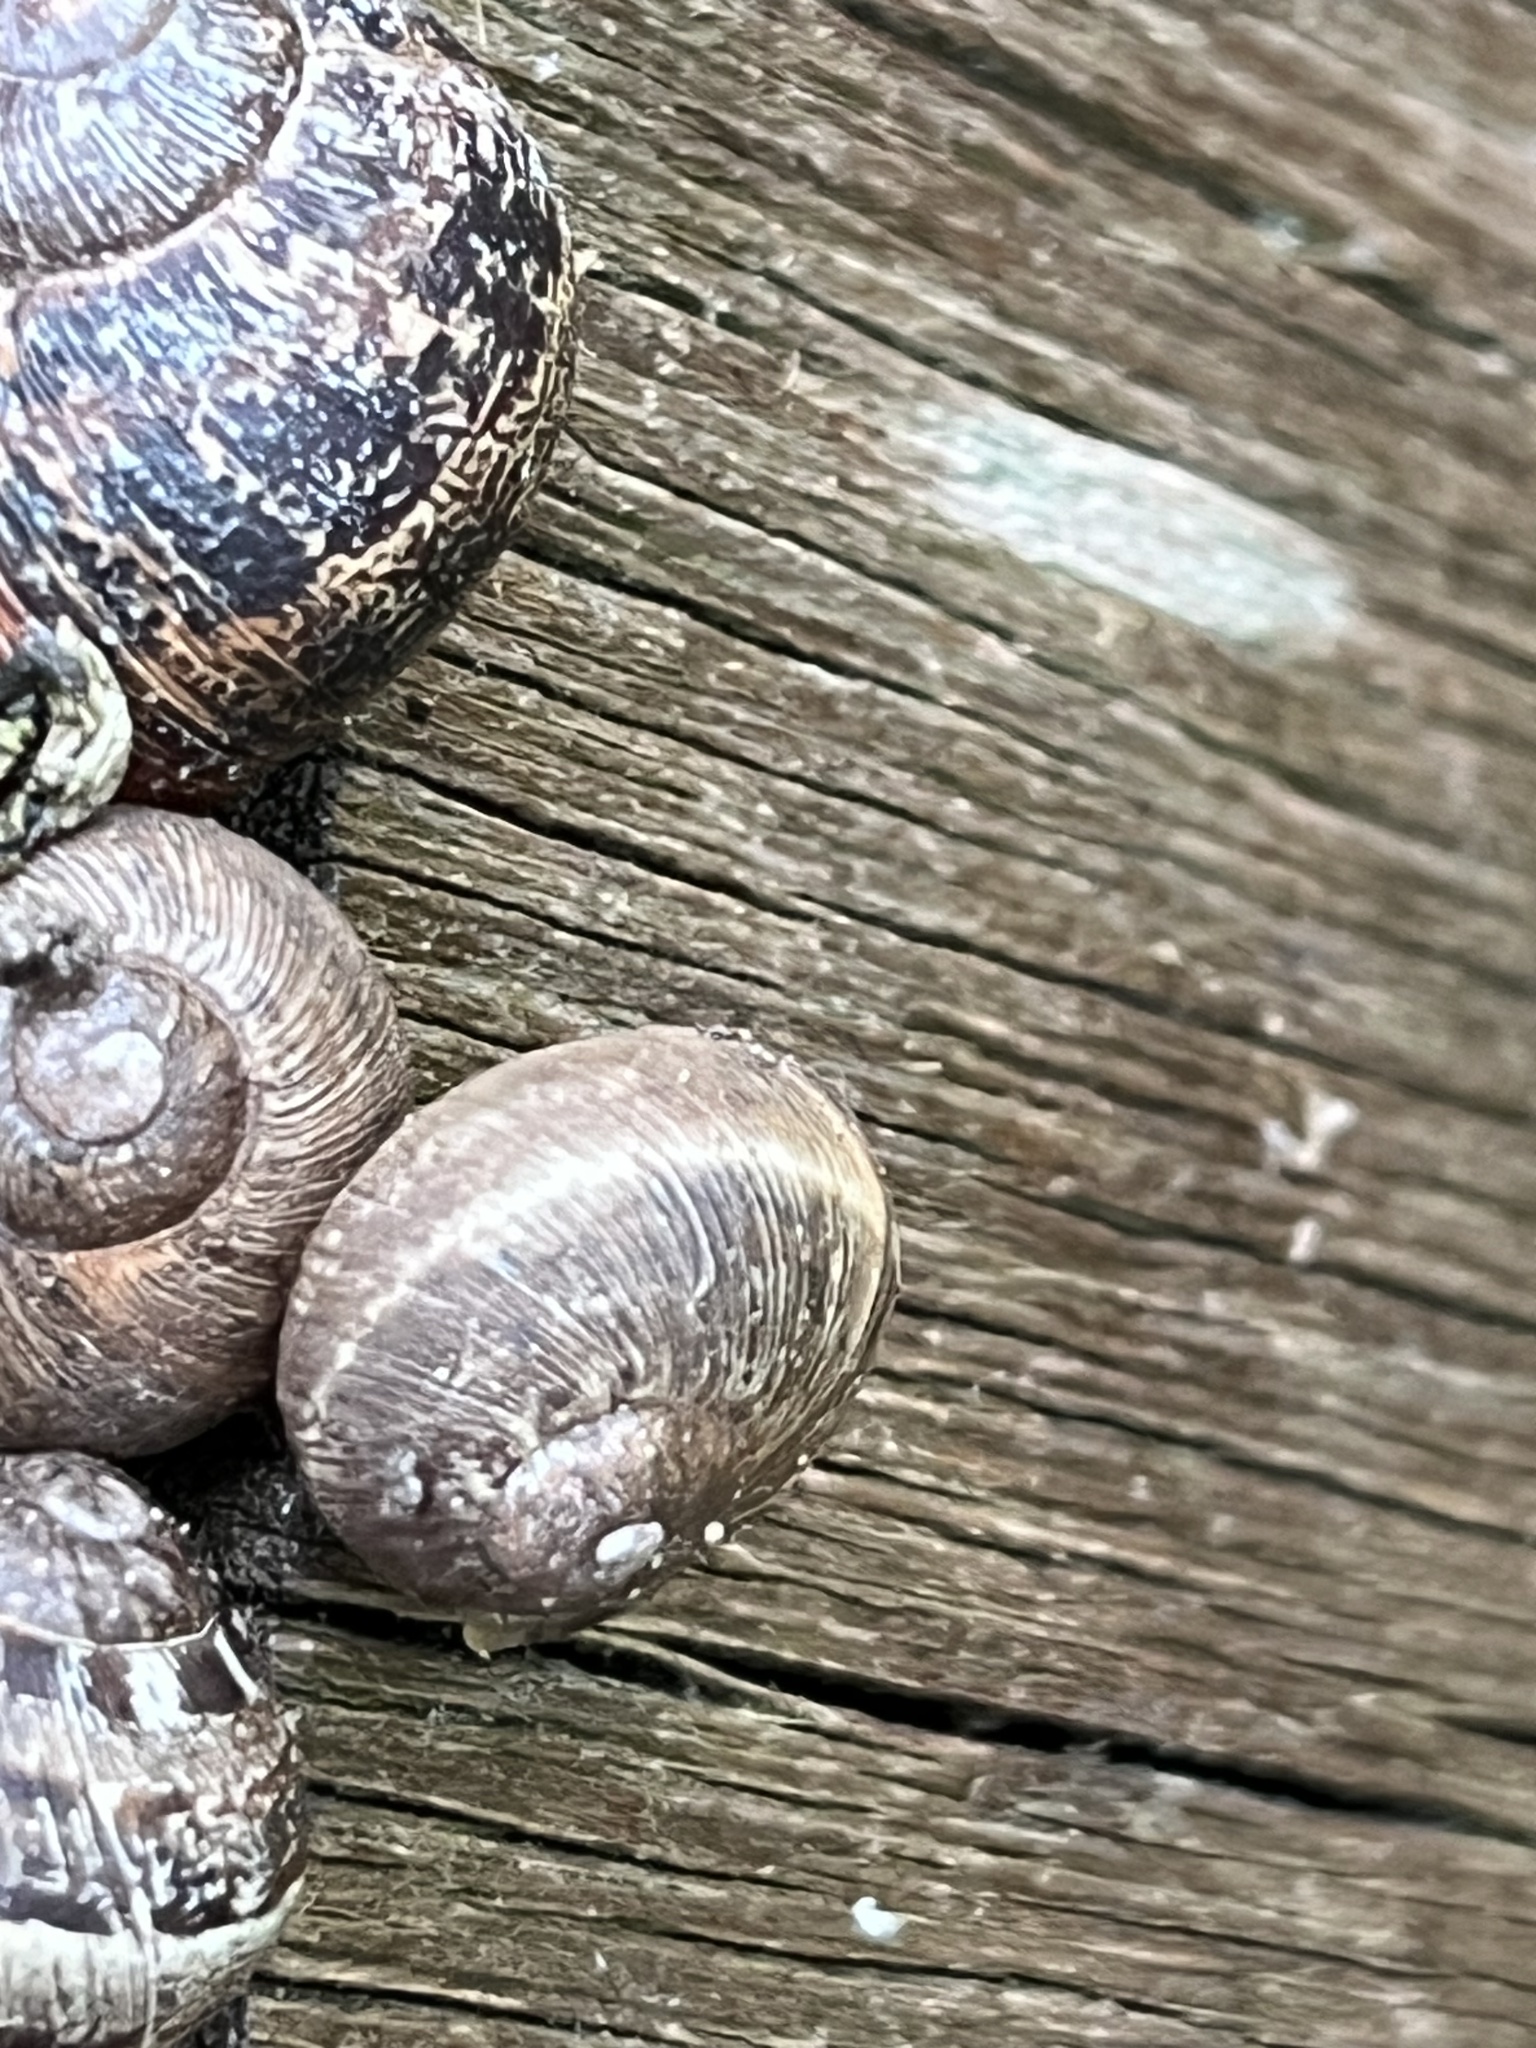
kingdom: Animalia
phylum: Mollusca
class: Gastropoda
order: Stylommatophora
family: Helicidae
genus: Cornu
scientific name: Cornu aspersum
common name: Brown garden snail
